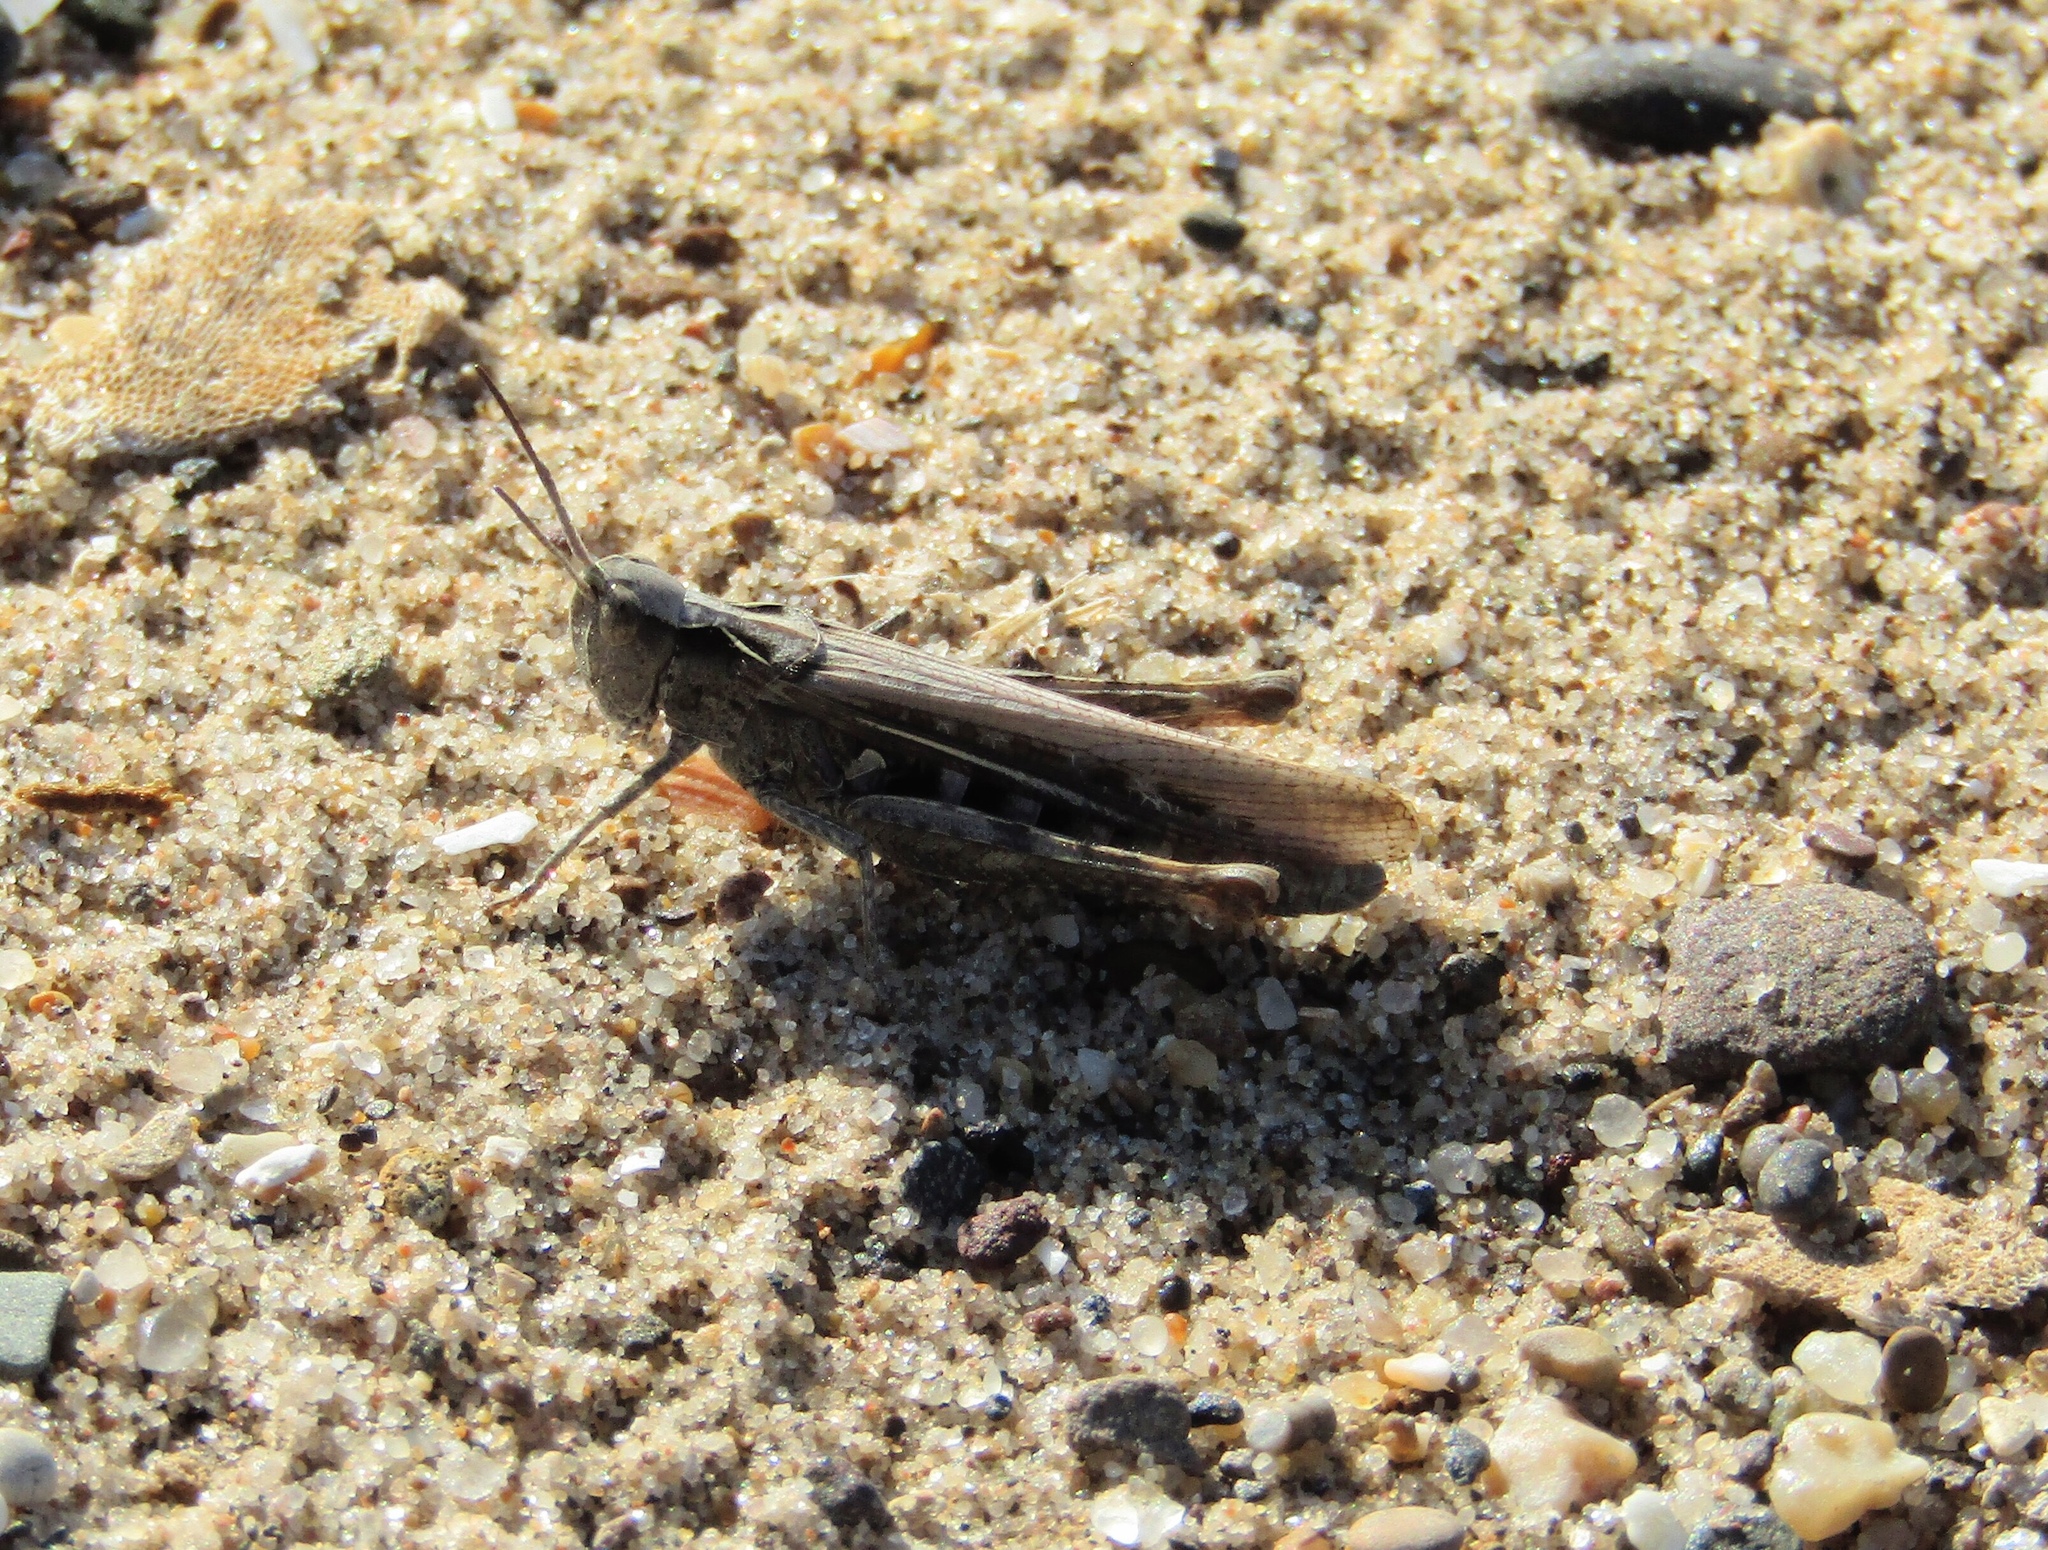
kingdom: Animalia
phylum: Arthropoda
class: Insecta
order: Orthoptera
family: Acrididae
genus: Chorthippus
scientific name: Chorthippus brunneus
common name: Field grasshopper
